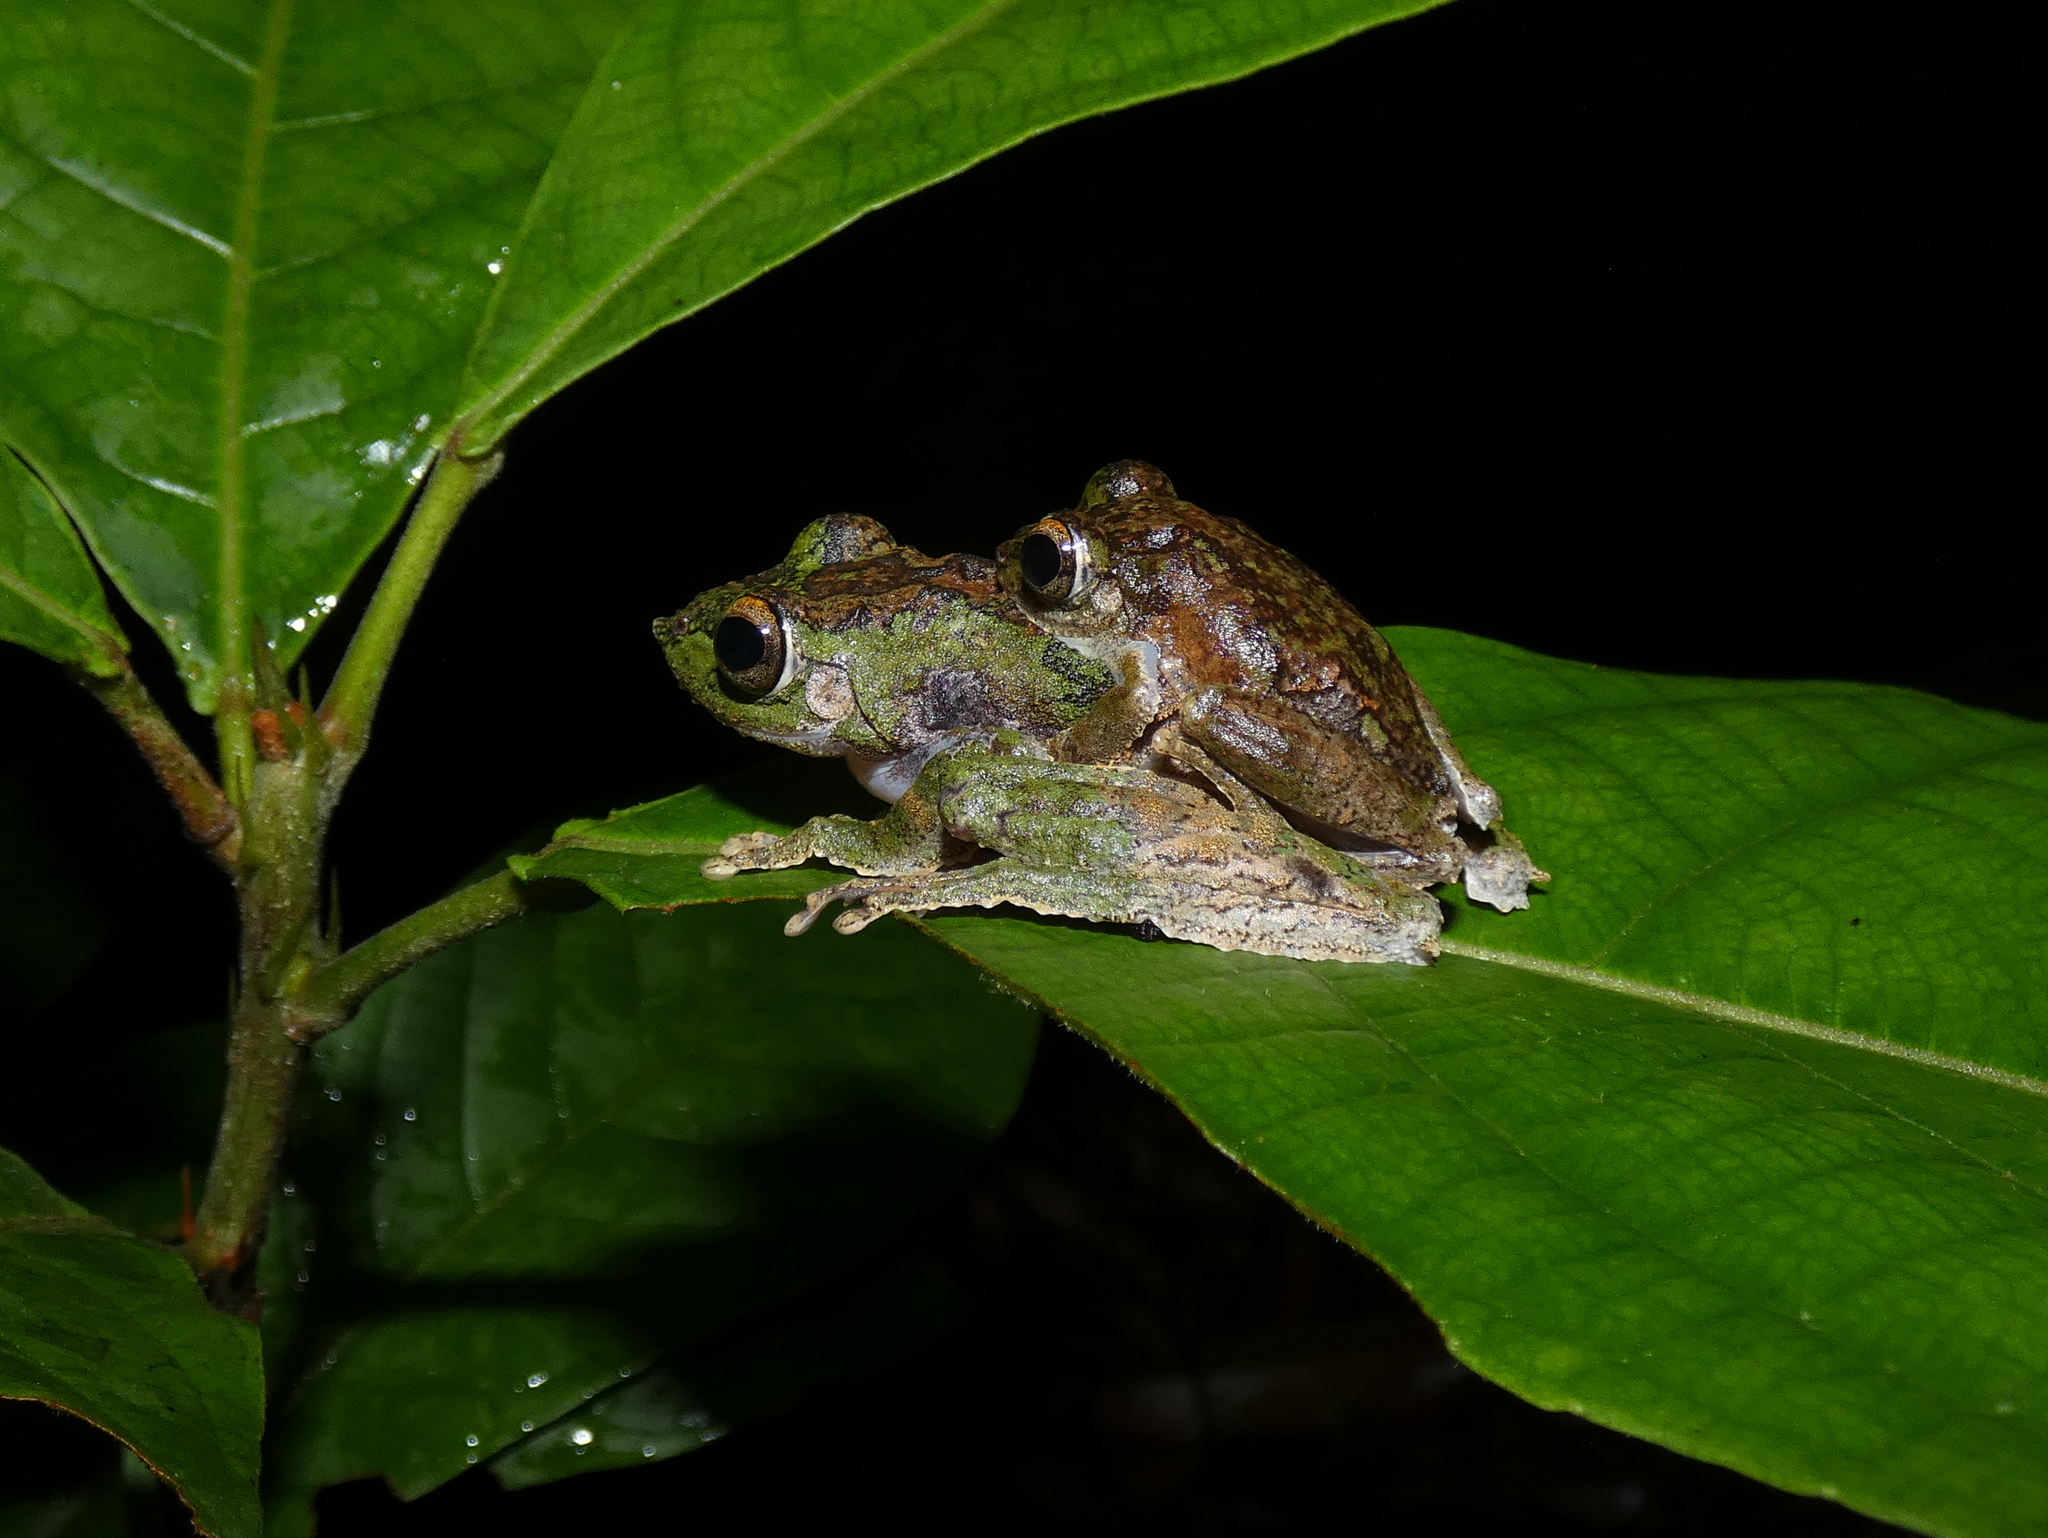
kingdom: Animalia
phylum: Chordata
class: Amphibia
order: Anura
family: Rhacophoridae
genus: Kurixalus
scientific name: Kurixalus chaseni
